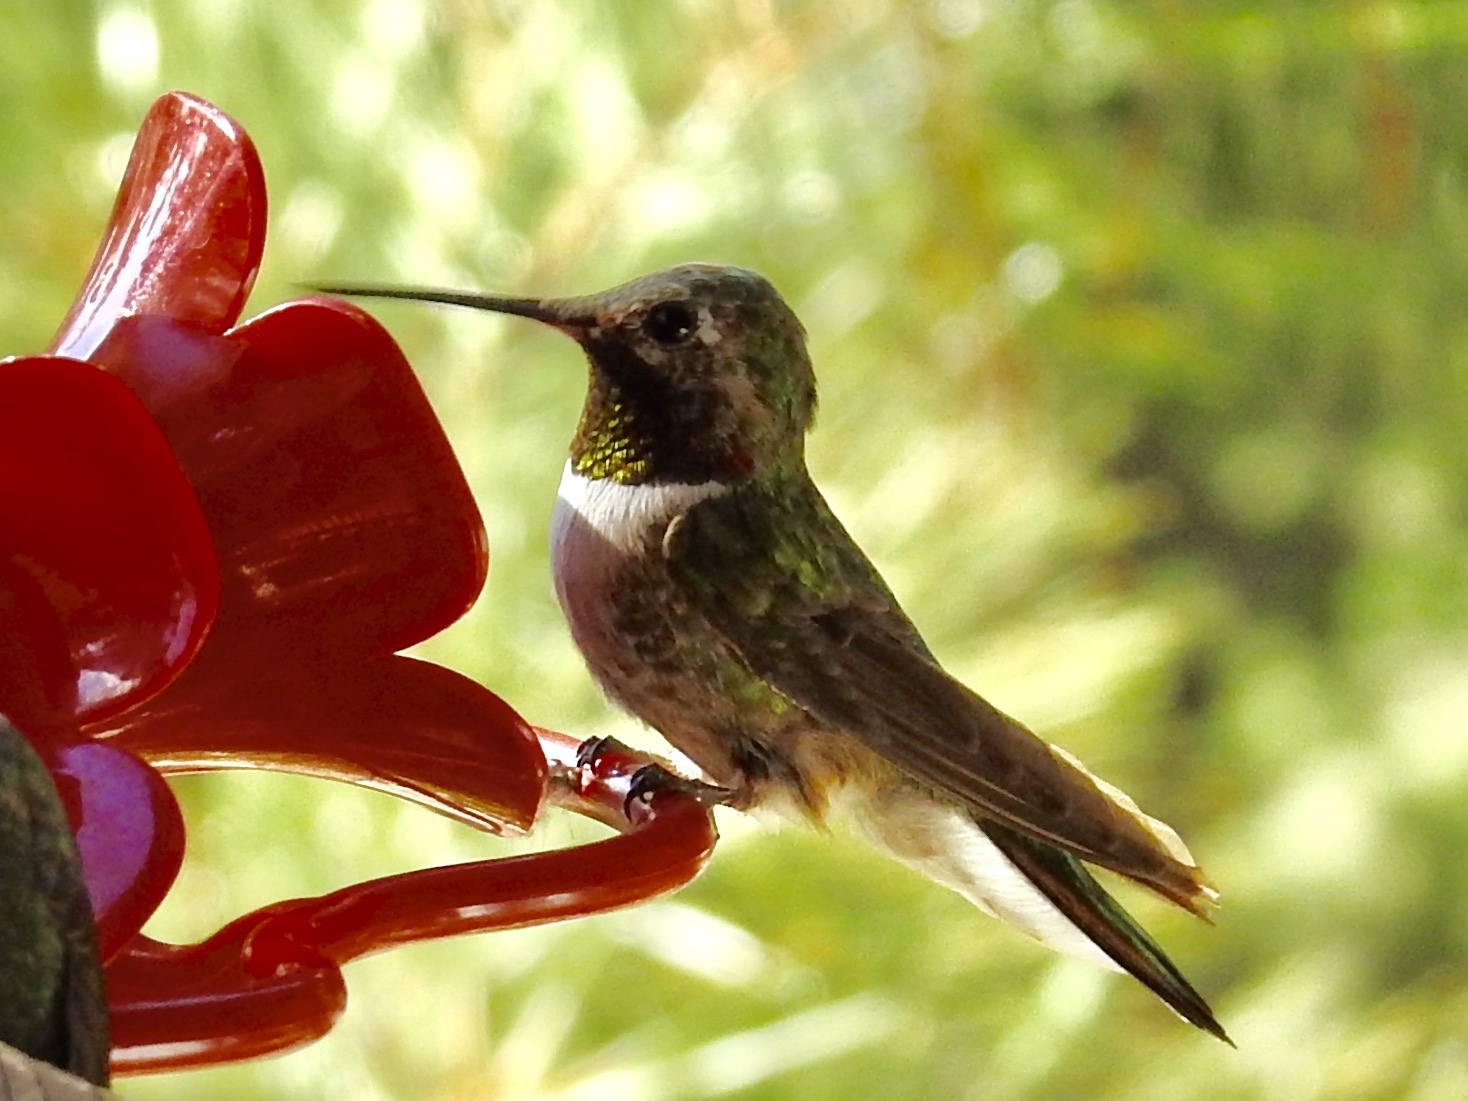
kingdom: Animalia
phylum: Chordata
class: Aves
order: Apodiformes
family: Trochilidae
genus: Selasphorus
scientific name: Selasphorus platycercus
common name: Broad-tailed hummingbird
